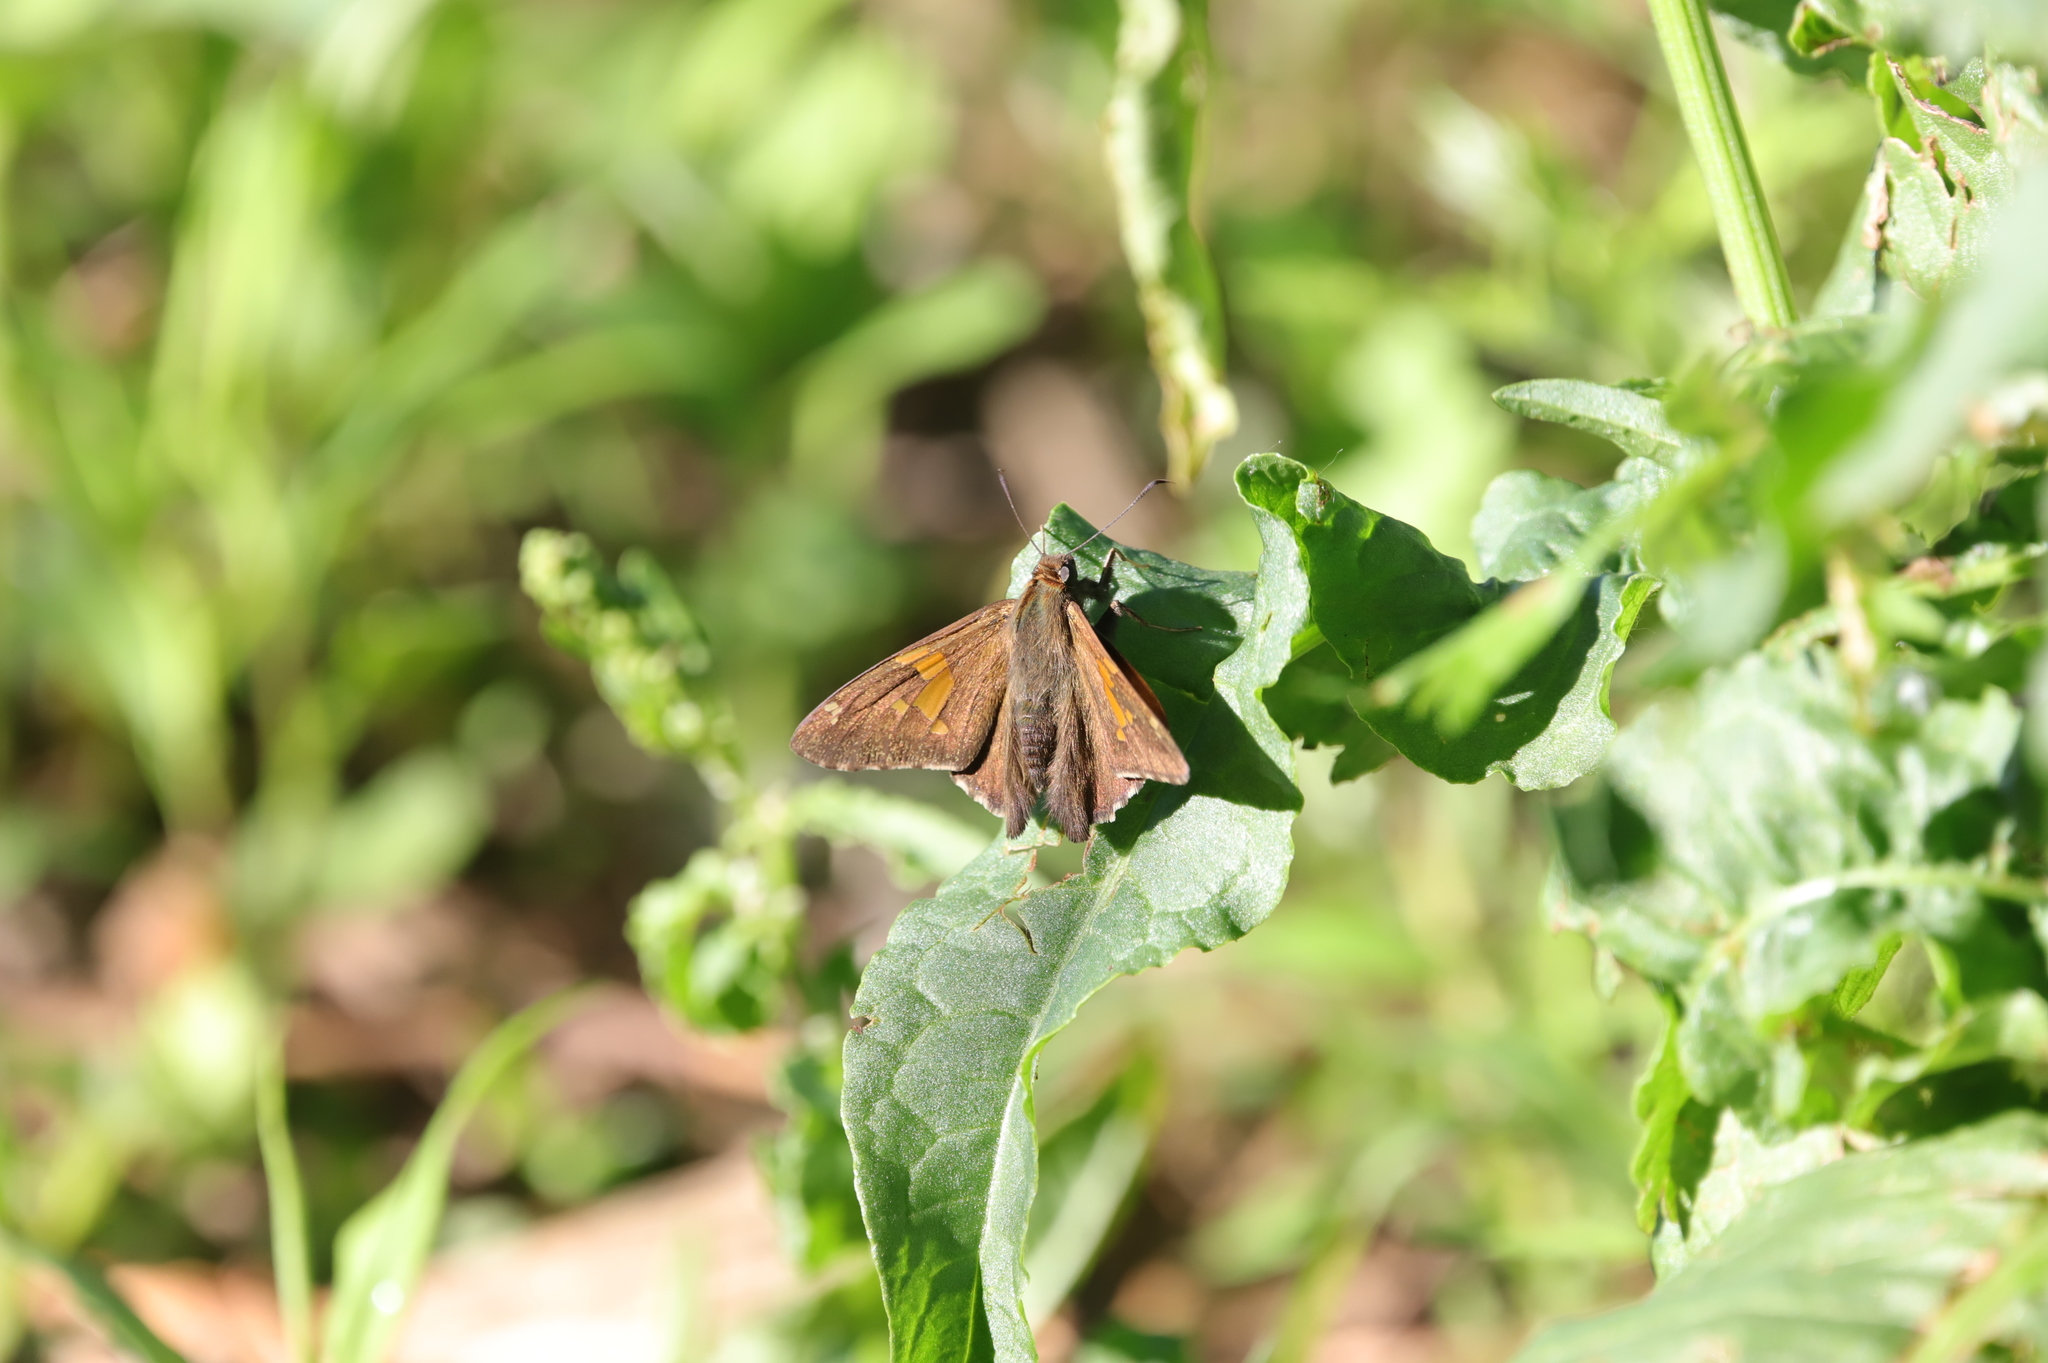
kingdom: Animalia
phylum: Arthropoda
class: Insecta
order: Lepidoptera
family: Hesperiidae
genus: Epargyreus
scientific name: Epargyreus clarus
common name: Silver-spotted skipper
